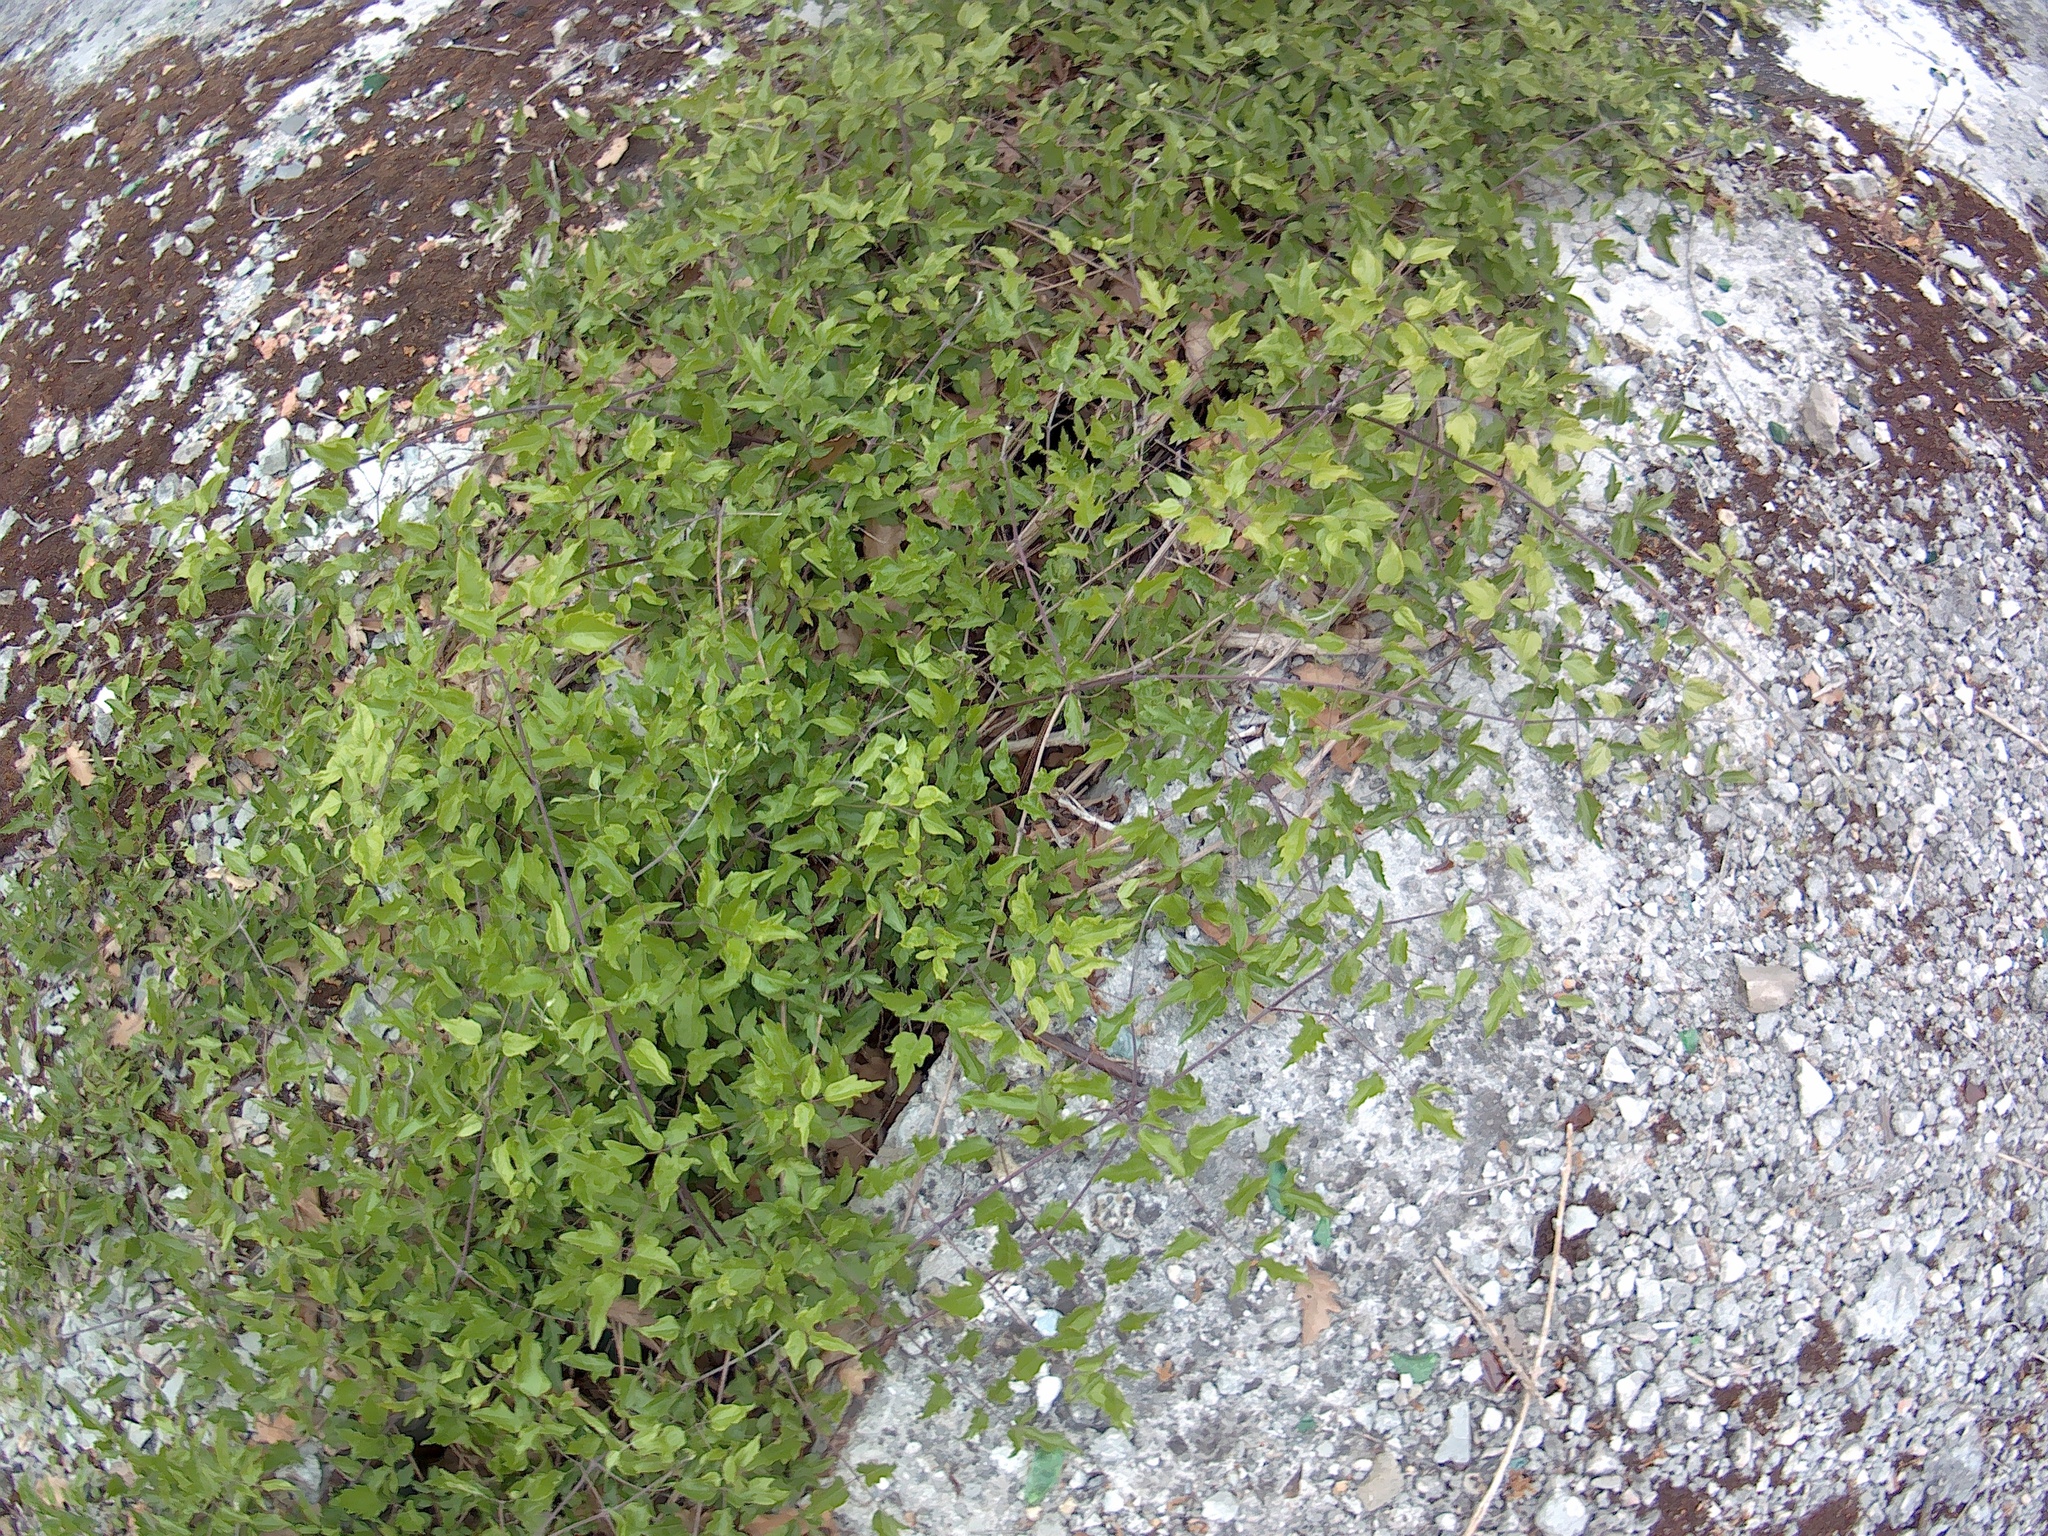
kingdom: Plantae
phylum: Tracheophyta
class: Magnoliopsida
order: Ranunculales
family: Ranunculaceae
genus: Clematis
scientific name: Clematis vitalba
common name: Evergreen clematis
